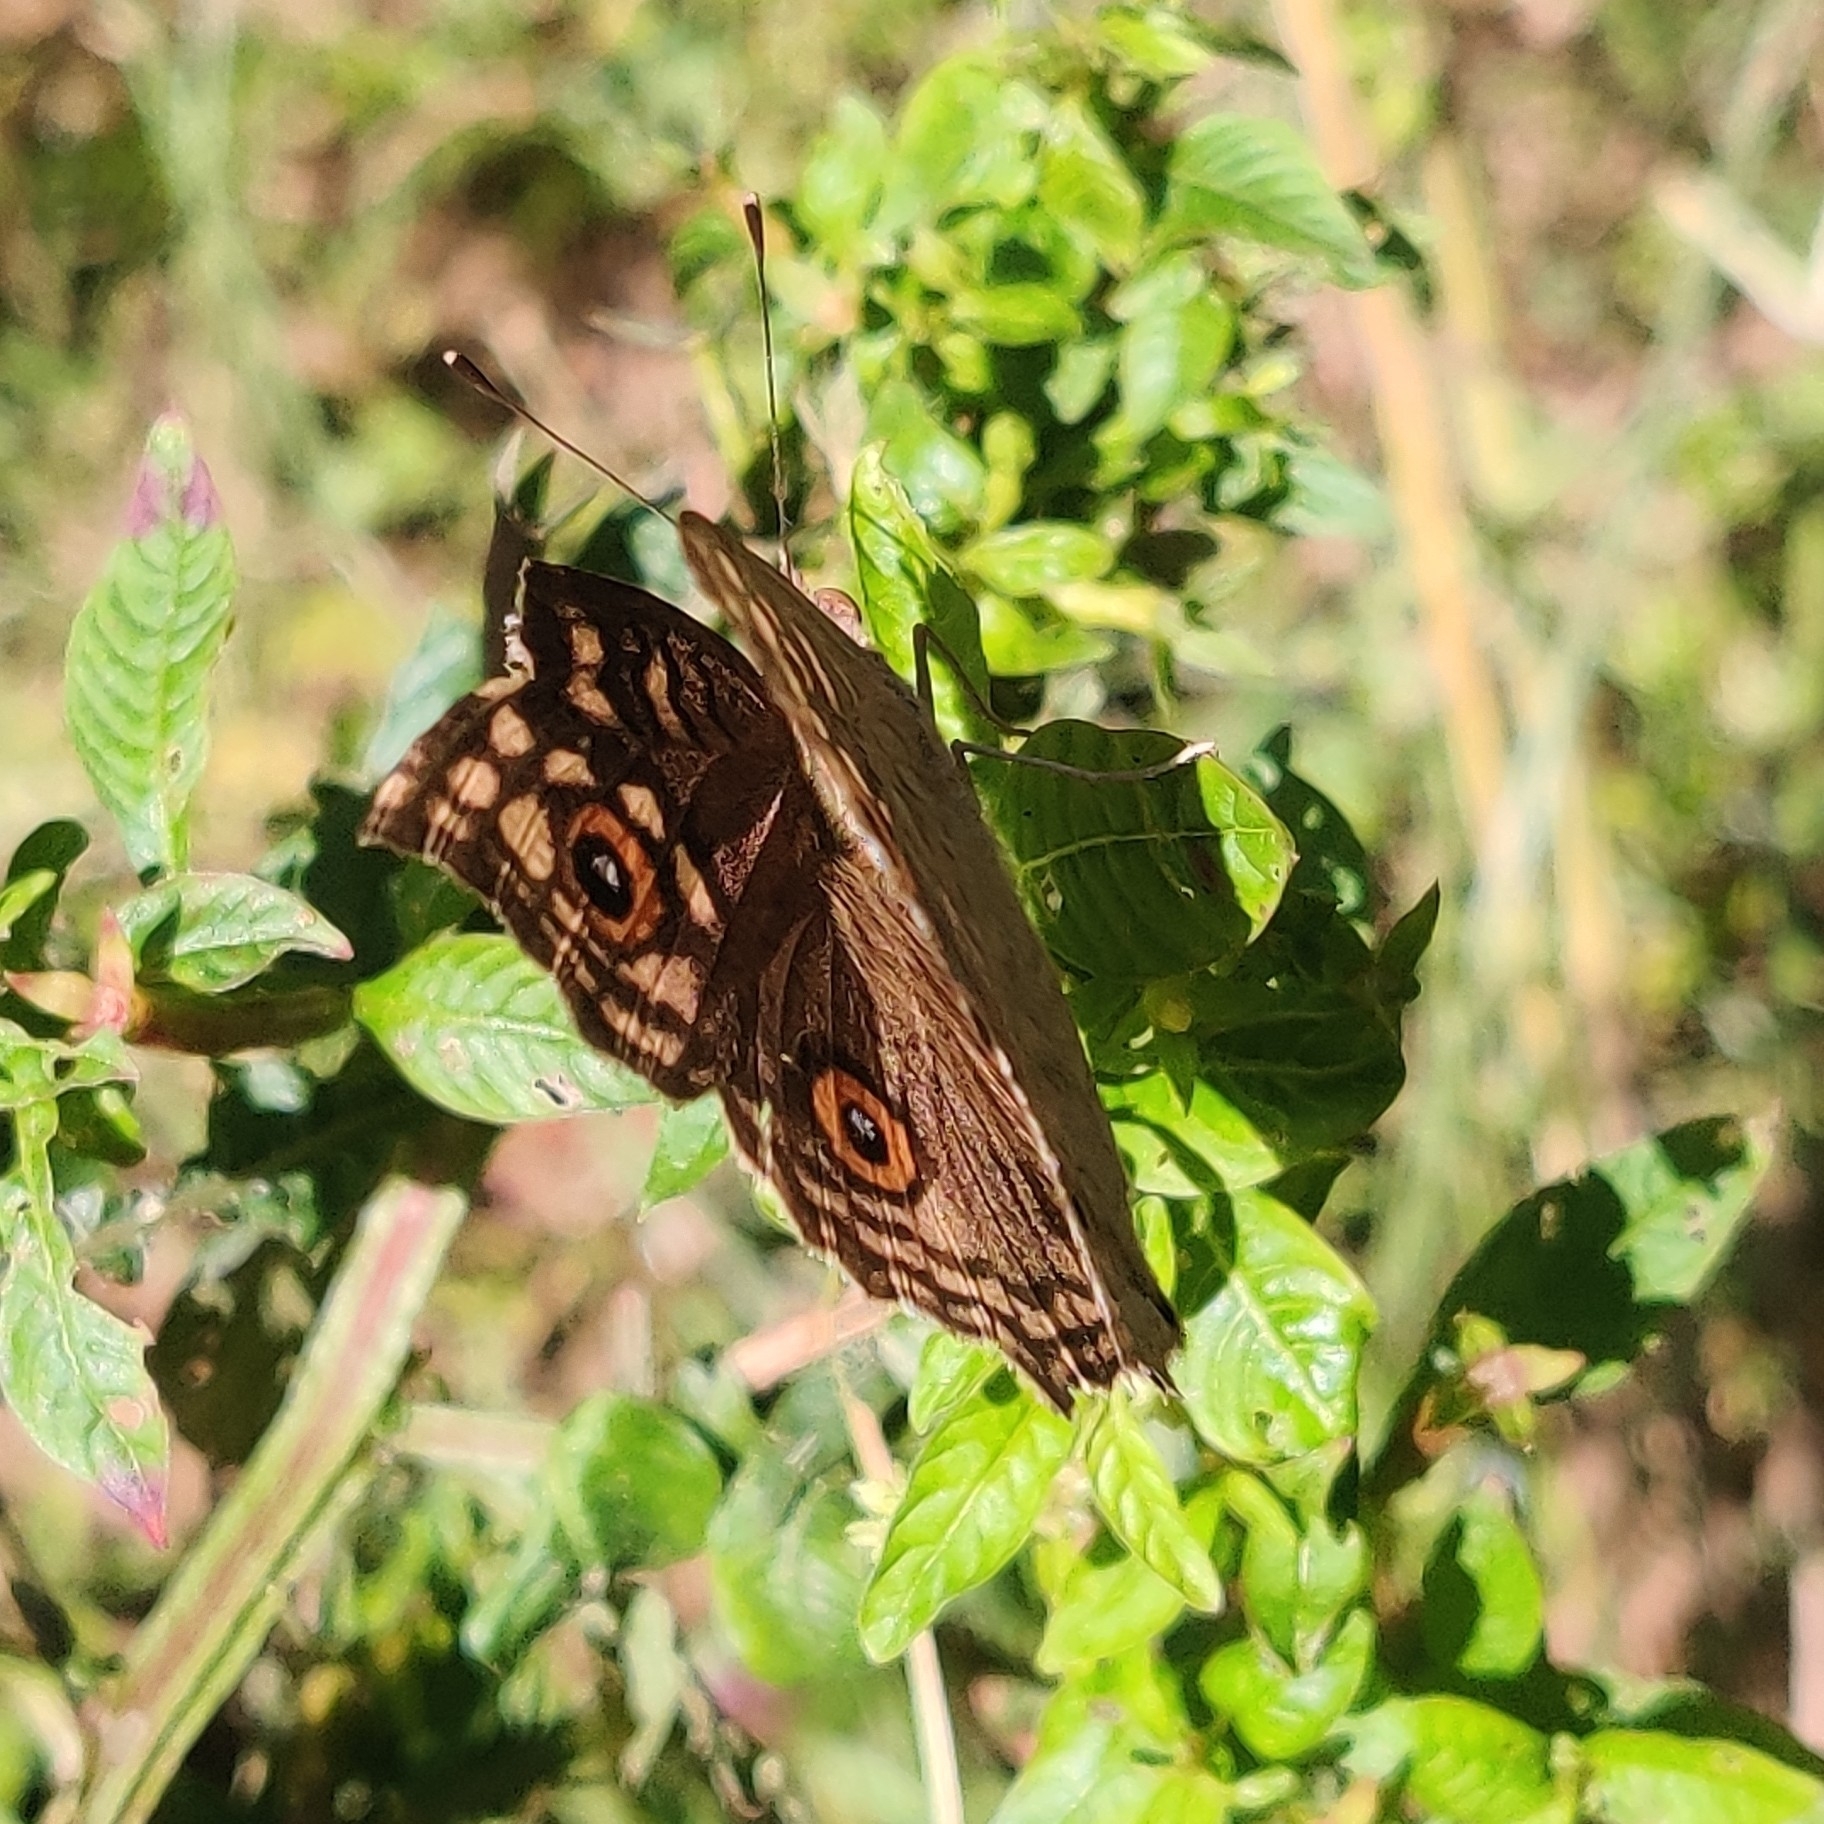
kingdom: Animalia
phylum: Arthropoda
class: Insecta
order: Lepidoptera
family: Nymphalidae
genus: Junonia
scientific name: Junonia lemonias
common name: Lemon pansy
